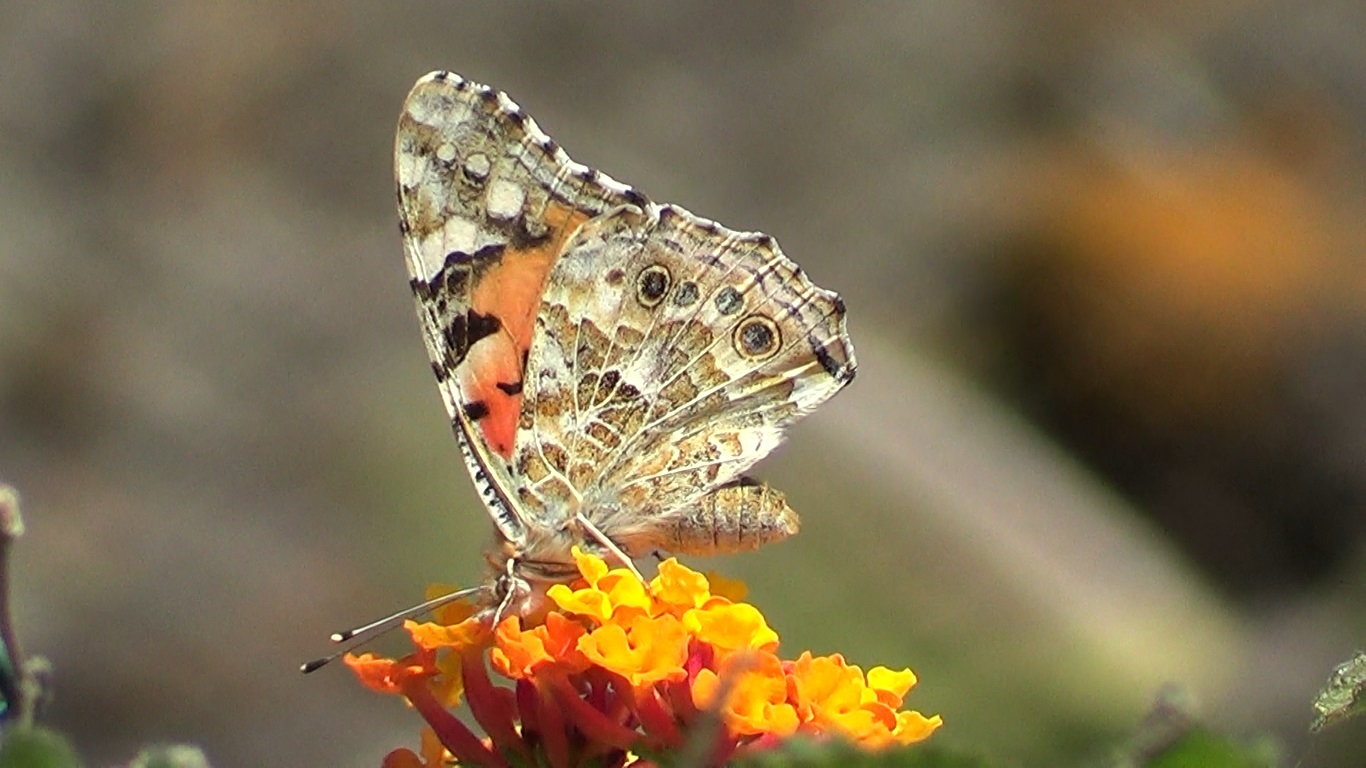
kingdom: Animalia
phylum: Arthropoda
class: Insecta
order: Lepidoptera
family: Nymphalidae
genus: Vanessa
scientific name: Vanessa cardui
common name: Painted lady
